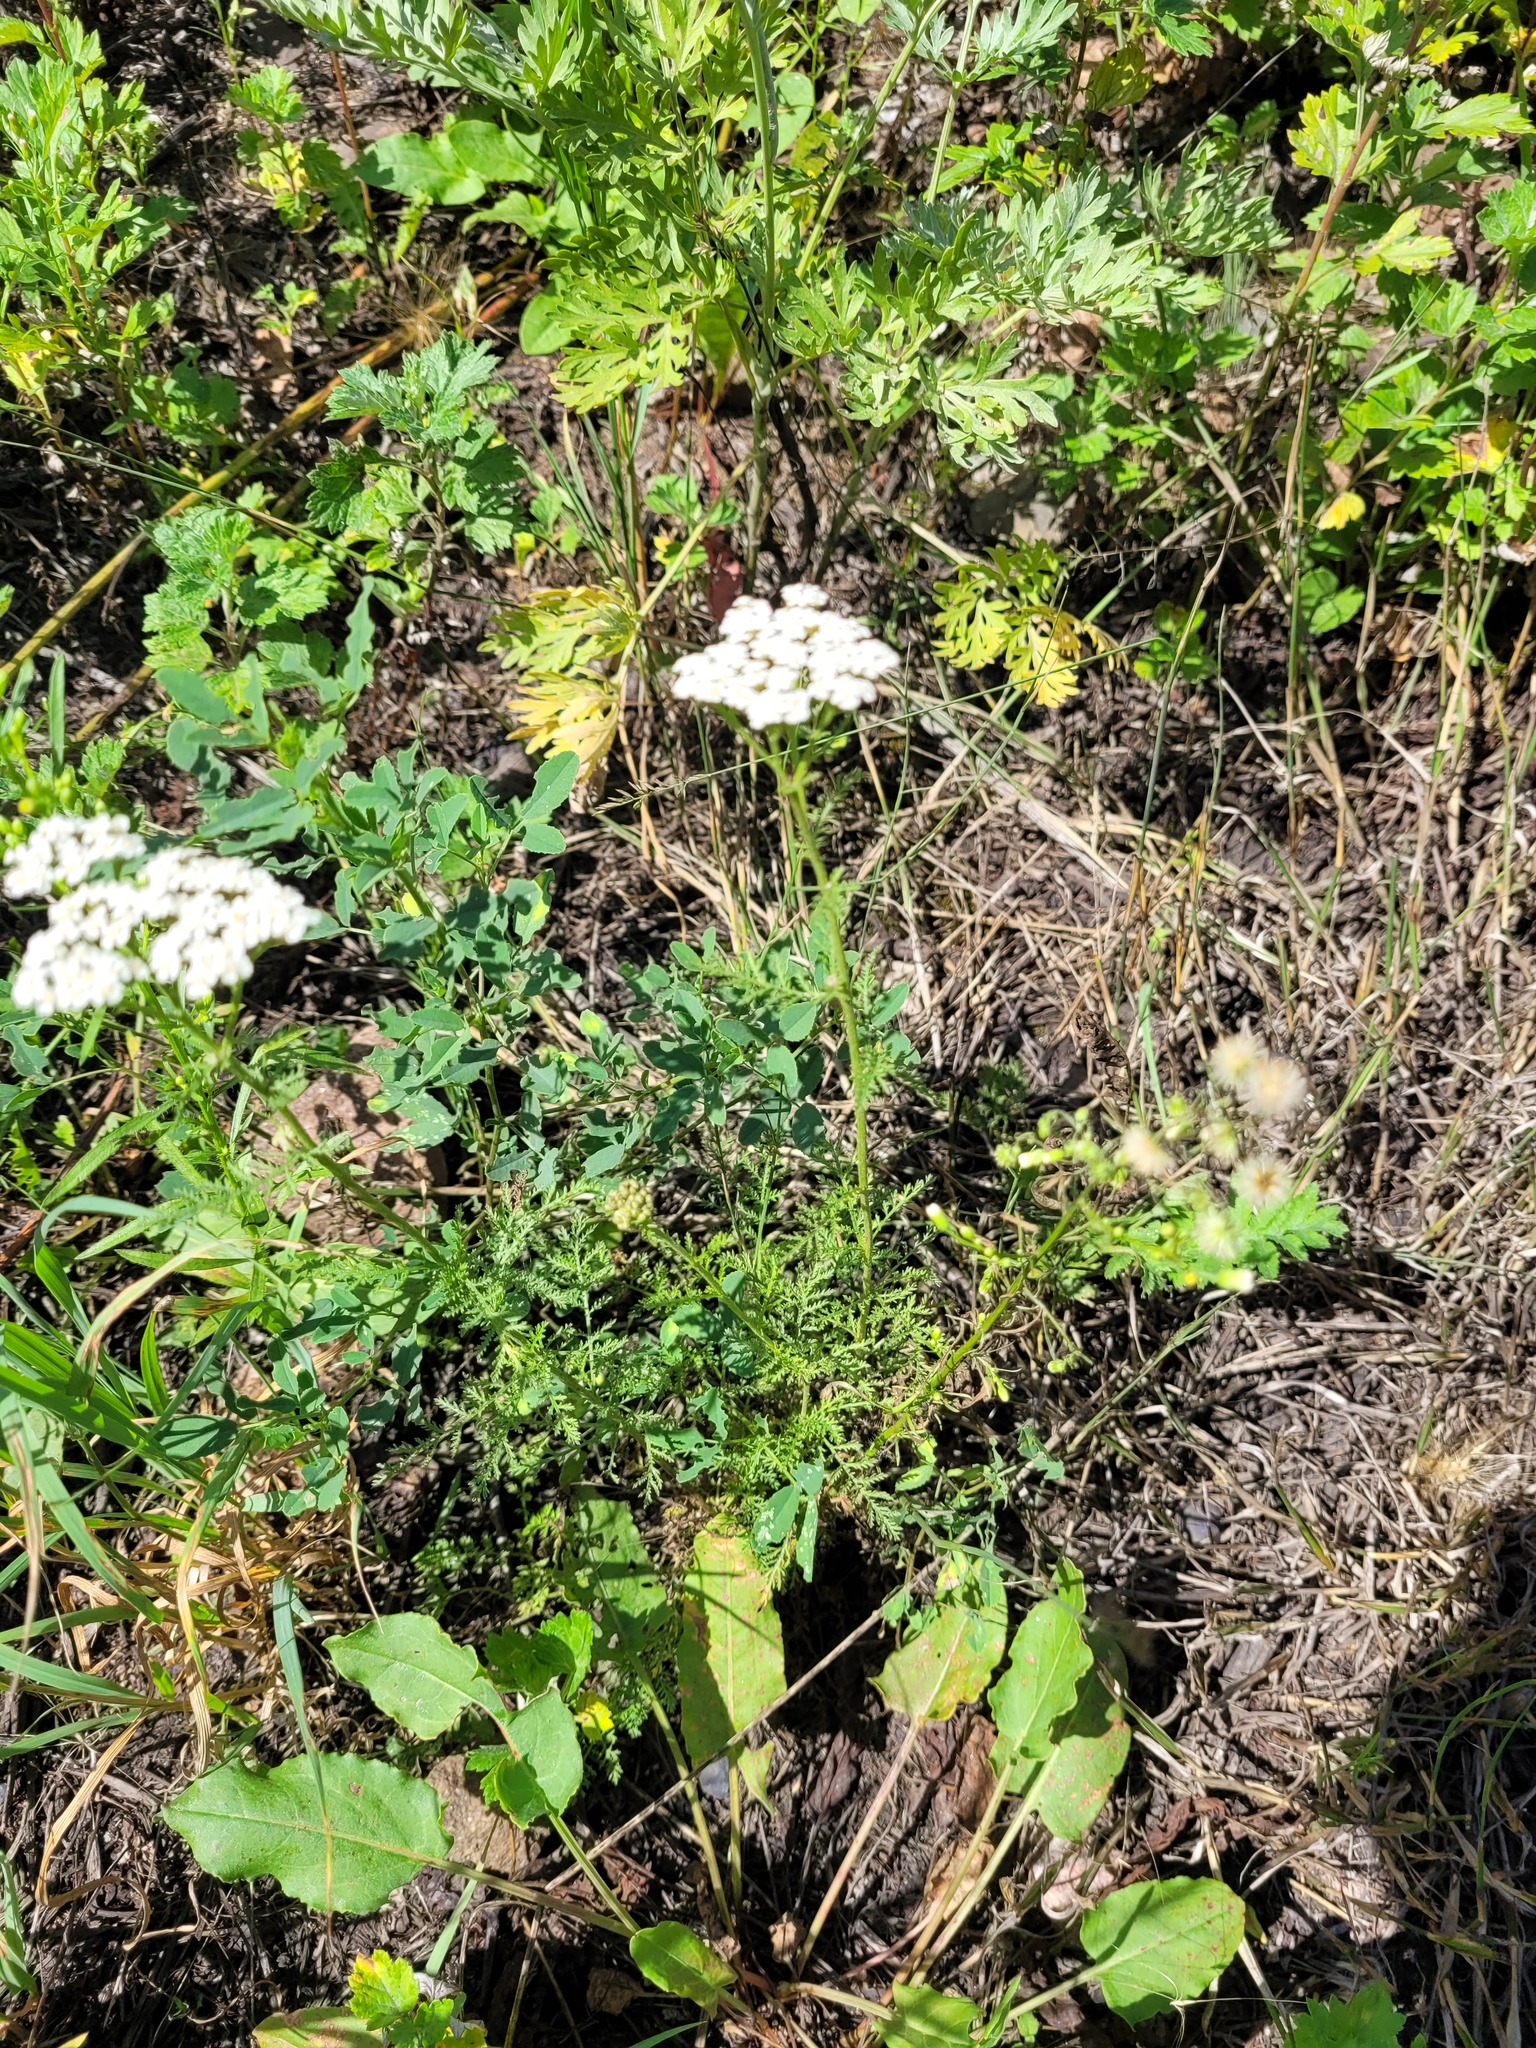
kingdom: Plantae
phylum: Tracheophyta
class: Magnoliopsida
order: Asterales
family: Asteraceae
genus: Achillea
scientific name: Achillea nobilis
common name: Noble yarrow
